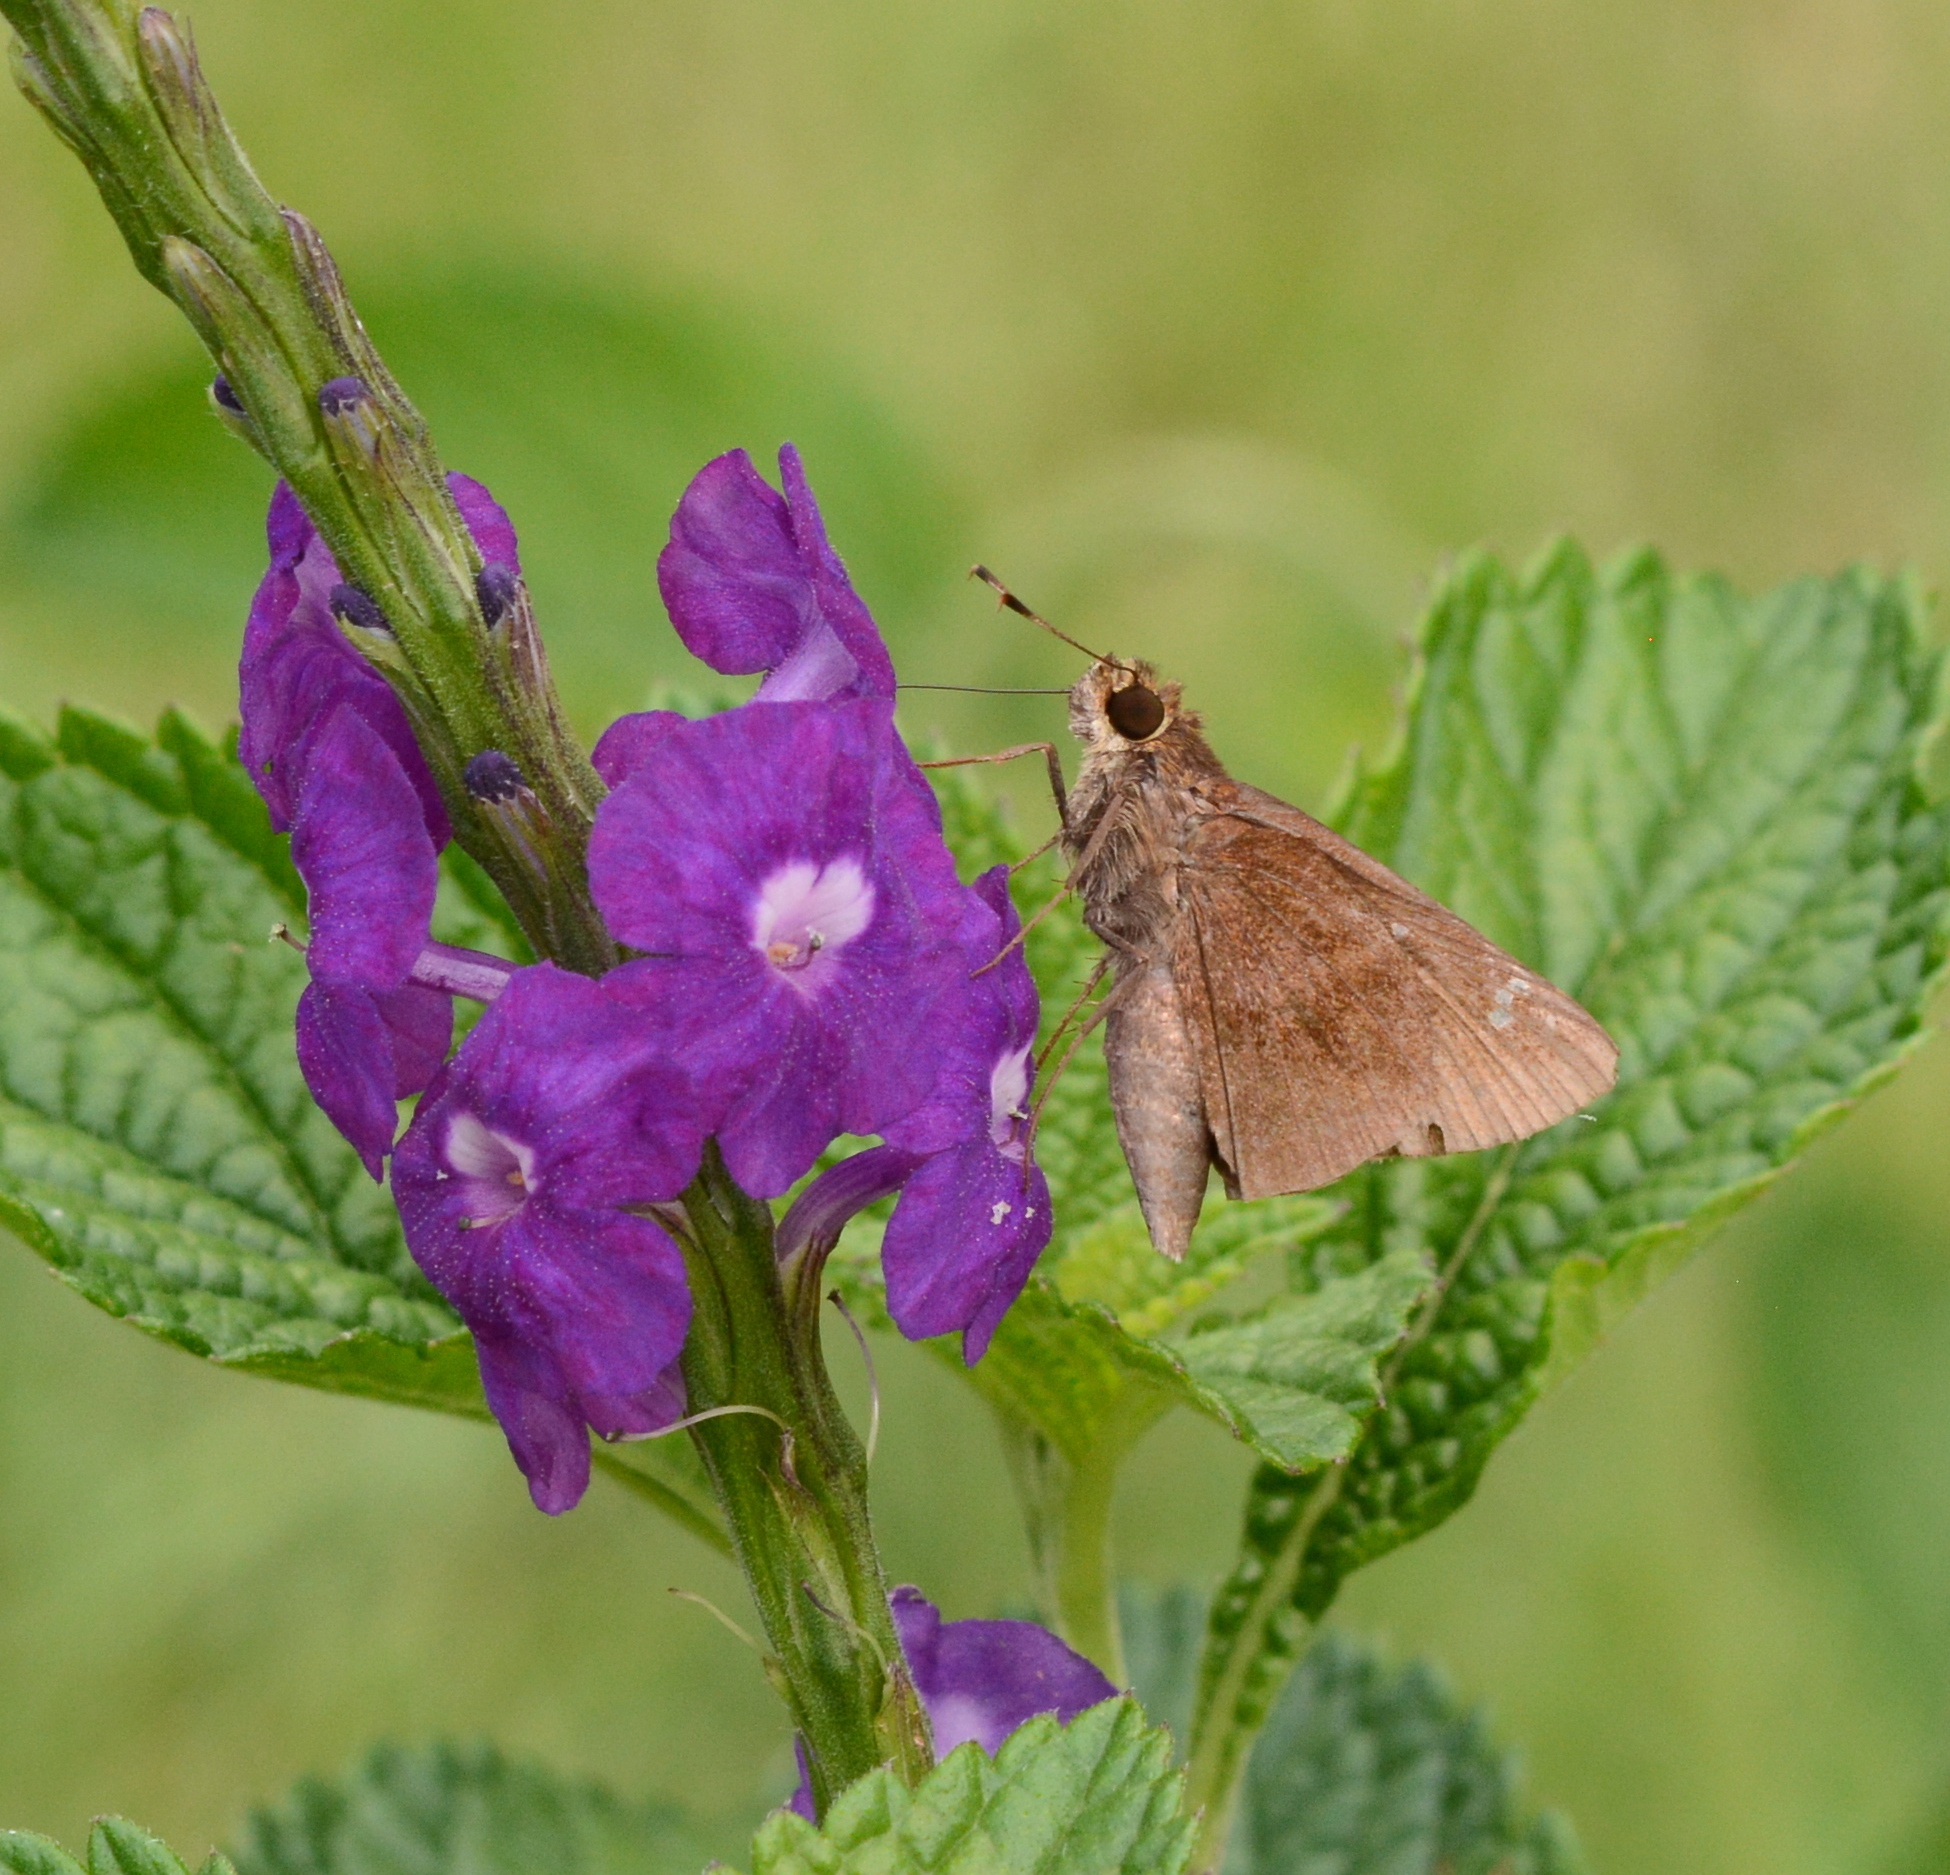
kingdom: Animalia
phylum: Arthropoda
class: Insecta
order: Lepidoptera
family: Hesperiidae
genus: Lerema
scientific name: Lerema accius
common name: Clouded skipper
